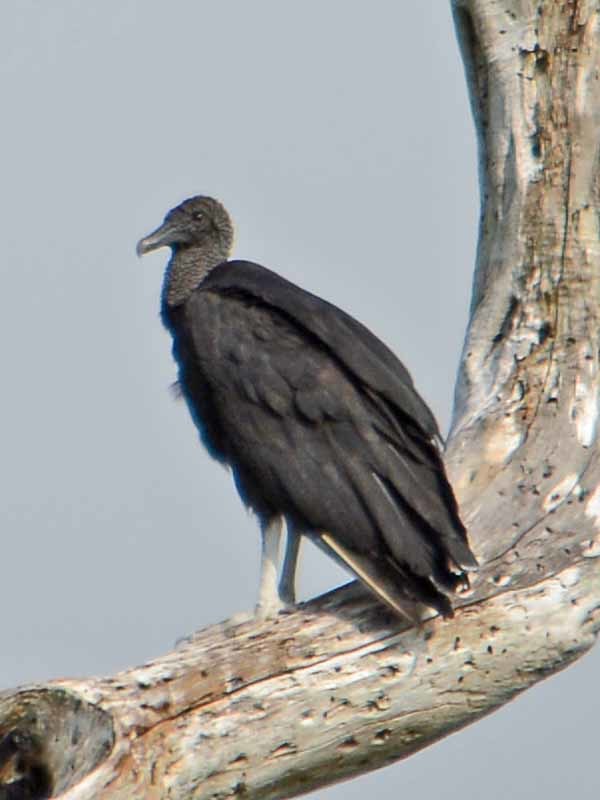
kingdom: Animalia
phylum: Chordata
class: Aves
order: Accipitriformes
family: Cathartidae
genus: Coragyps
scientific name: Coragyps atratus
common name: Black vulture
